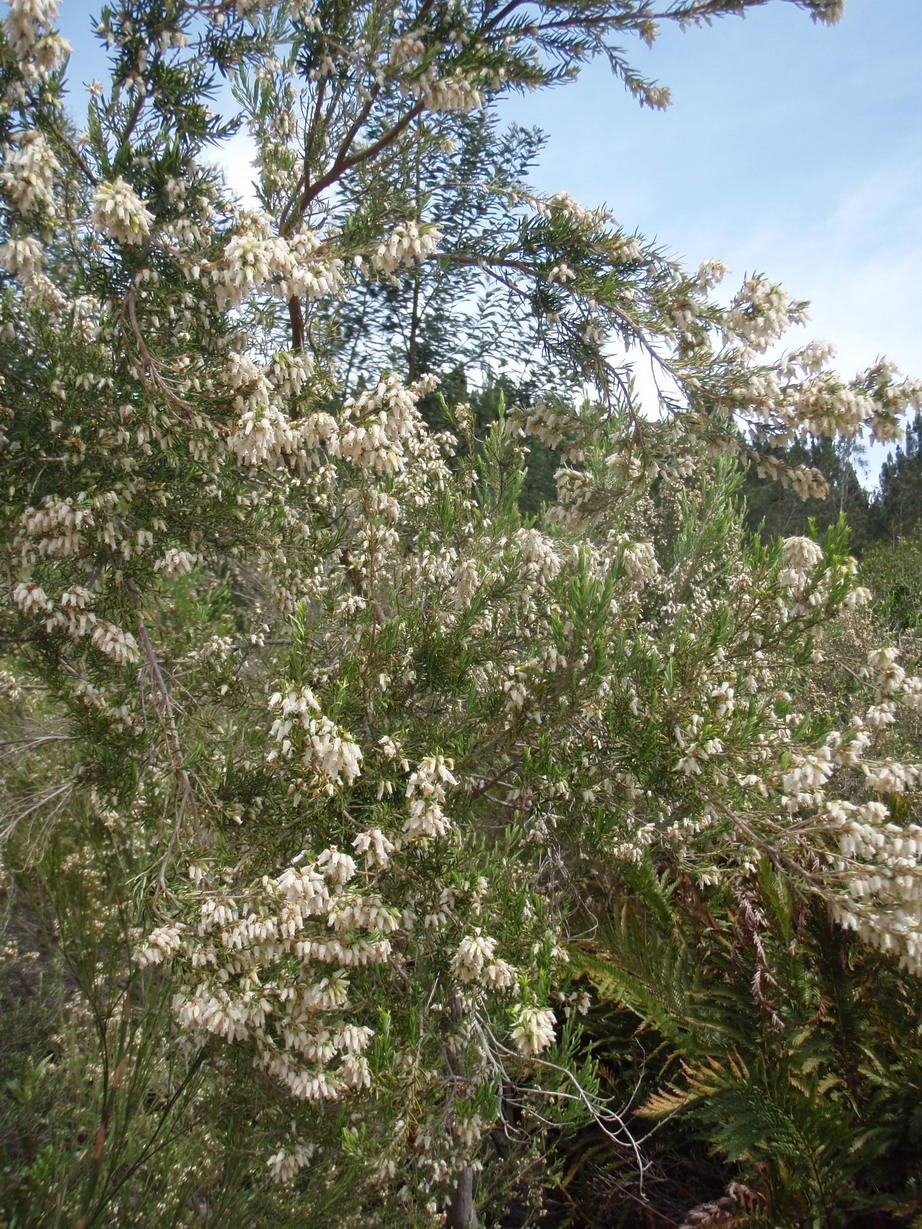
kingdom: Plantae
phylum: Tracheophyta
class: Magnoliopsida
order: Ericales
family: Ericaceae
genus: Erica
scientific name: Erica caffra
